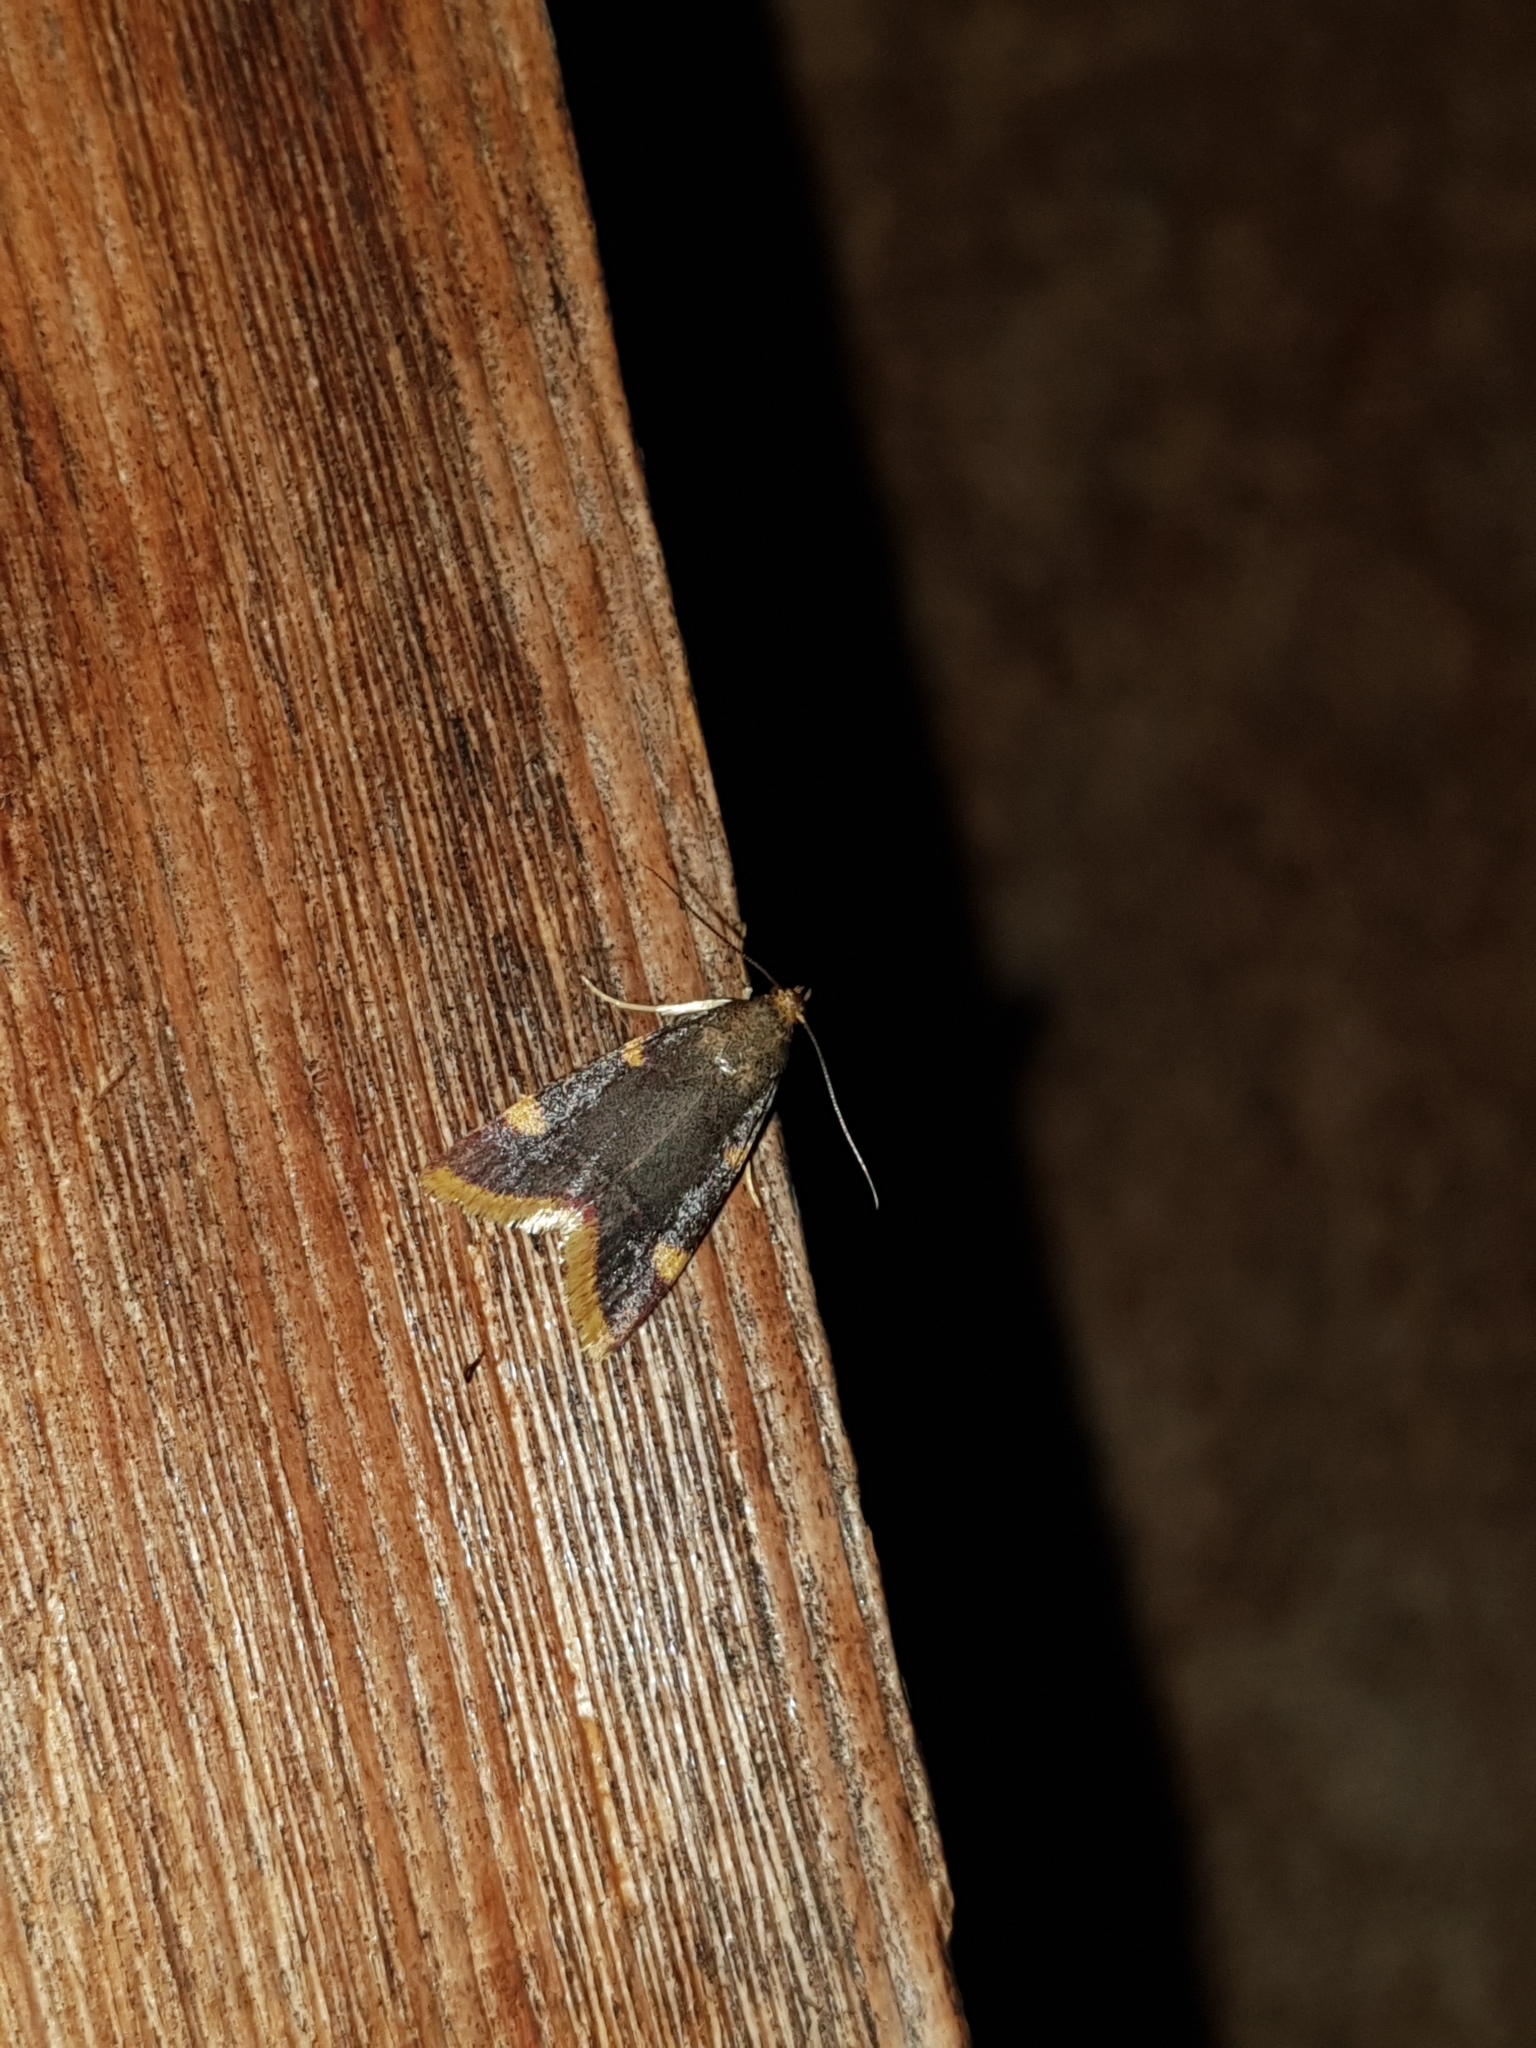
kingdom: Animalia
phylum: Arthropoda
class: Insecta
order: Lepidoptera
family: Pyralidae
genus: Hypsopygia
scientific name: Hypsopygia costalis
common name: Gold triangle
